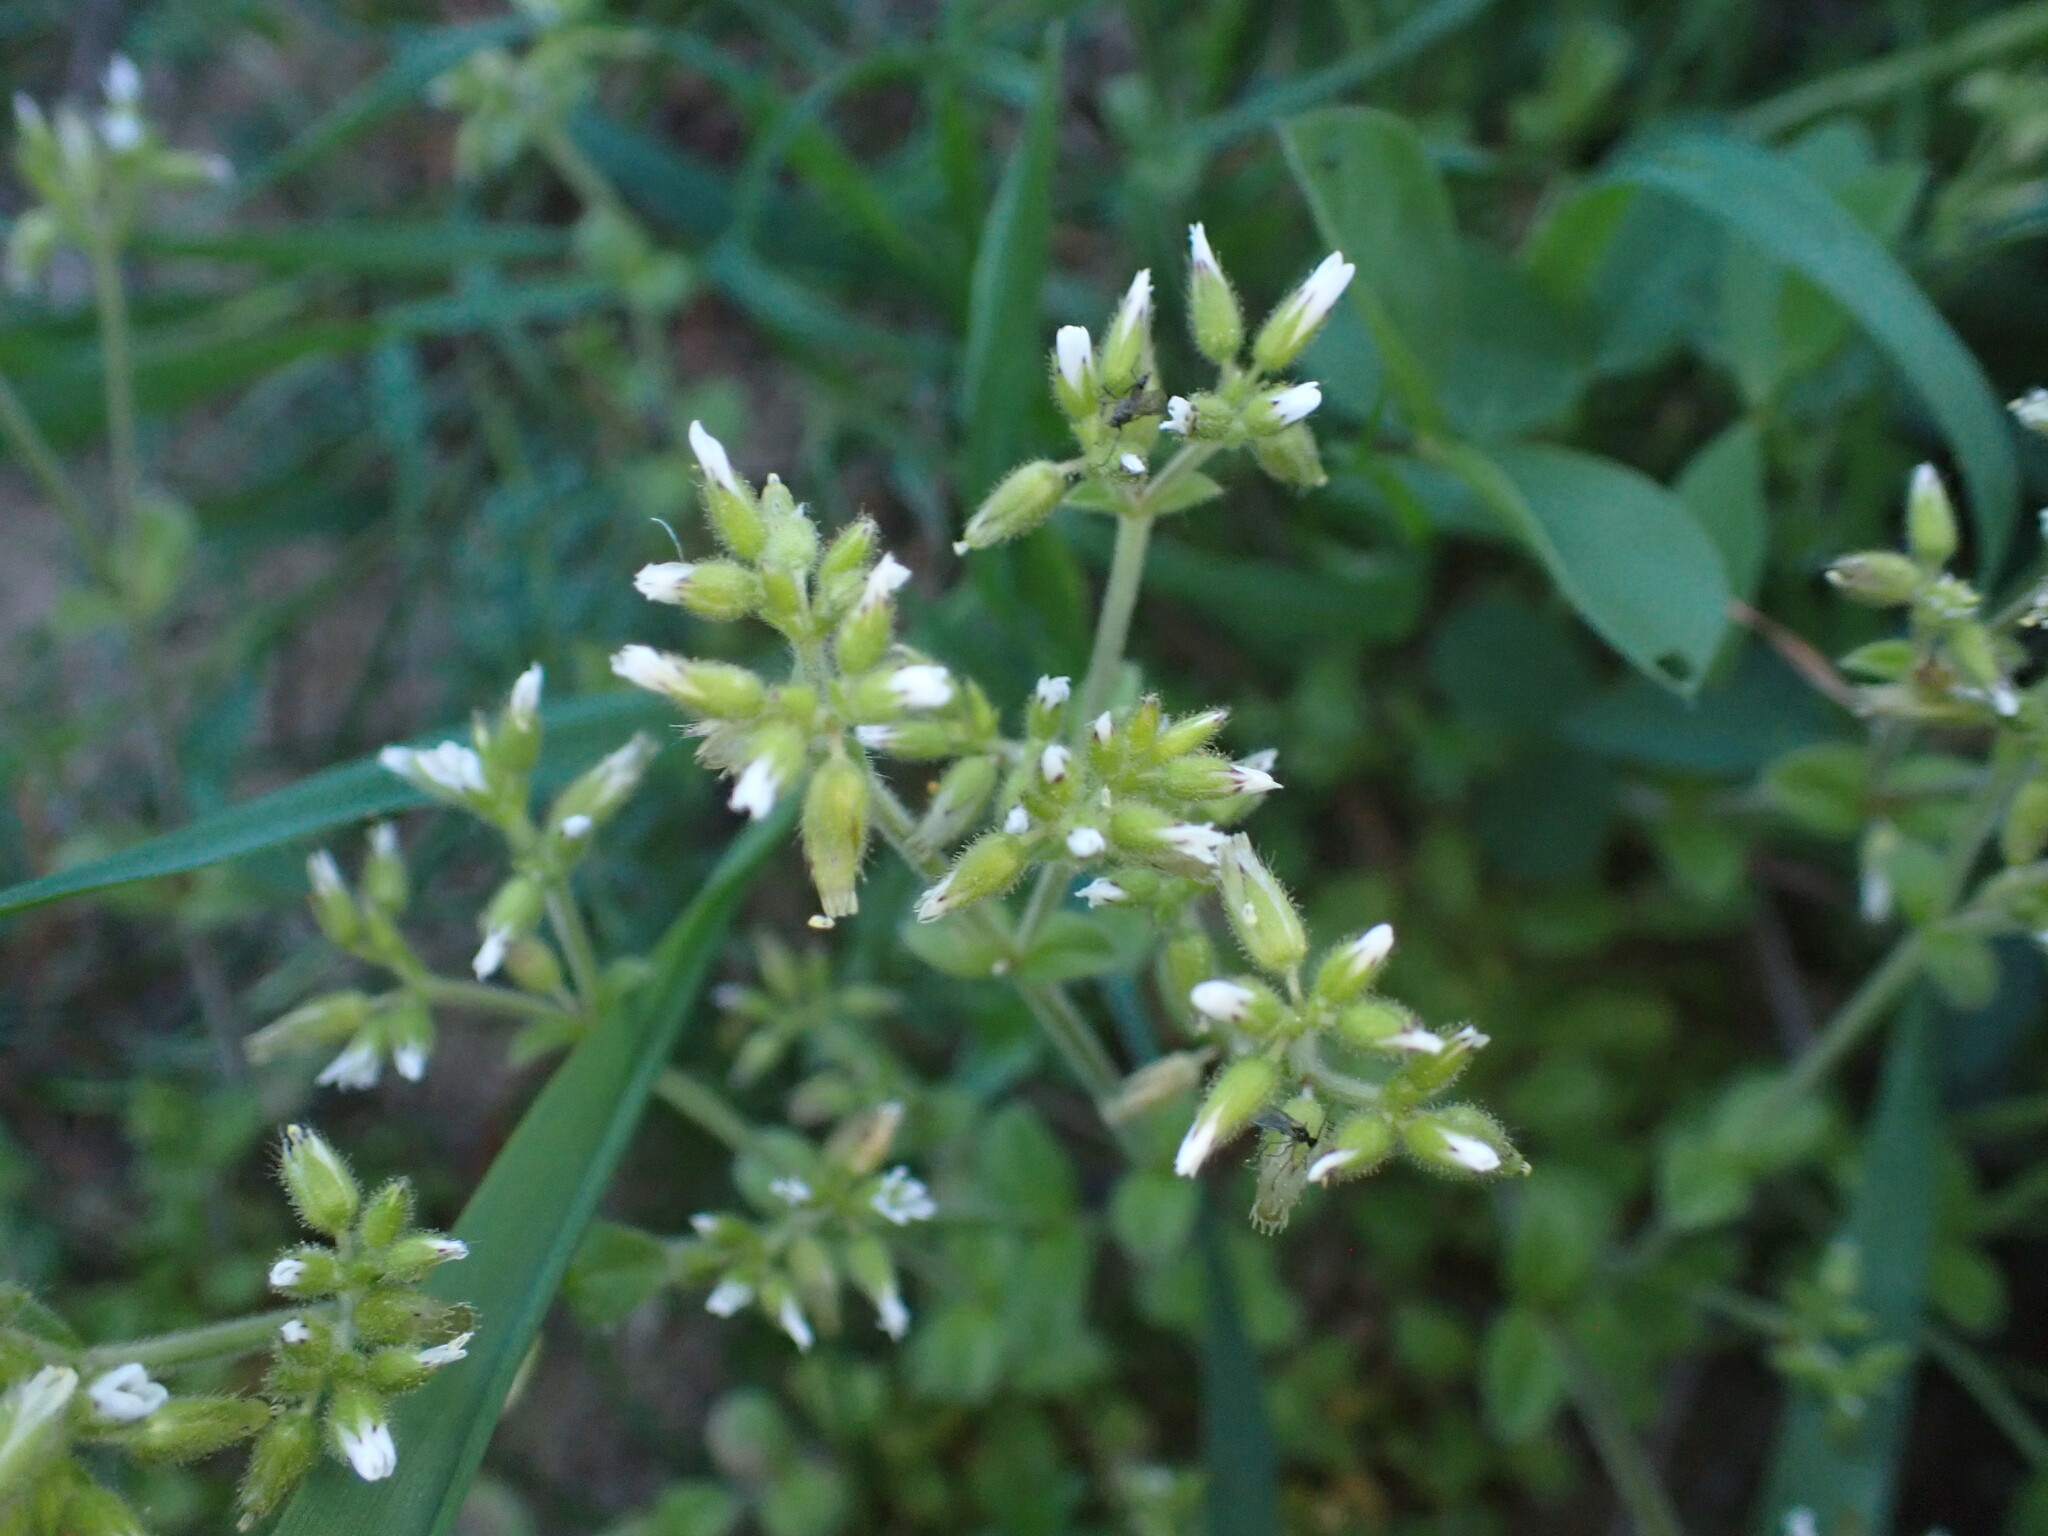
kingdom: Plantae
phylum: Tracheophyta
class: Magnoliopsida
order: Caryophyllales
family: Caryophyllaceae
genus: Cerastium
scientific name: Cerastium glomeratum
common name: Sticky chickweed
